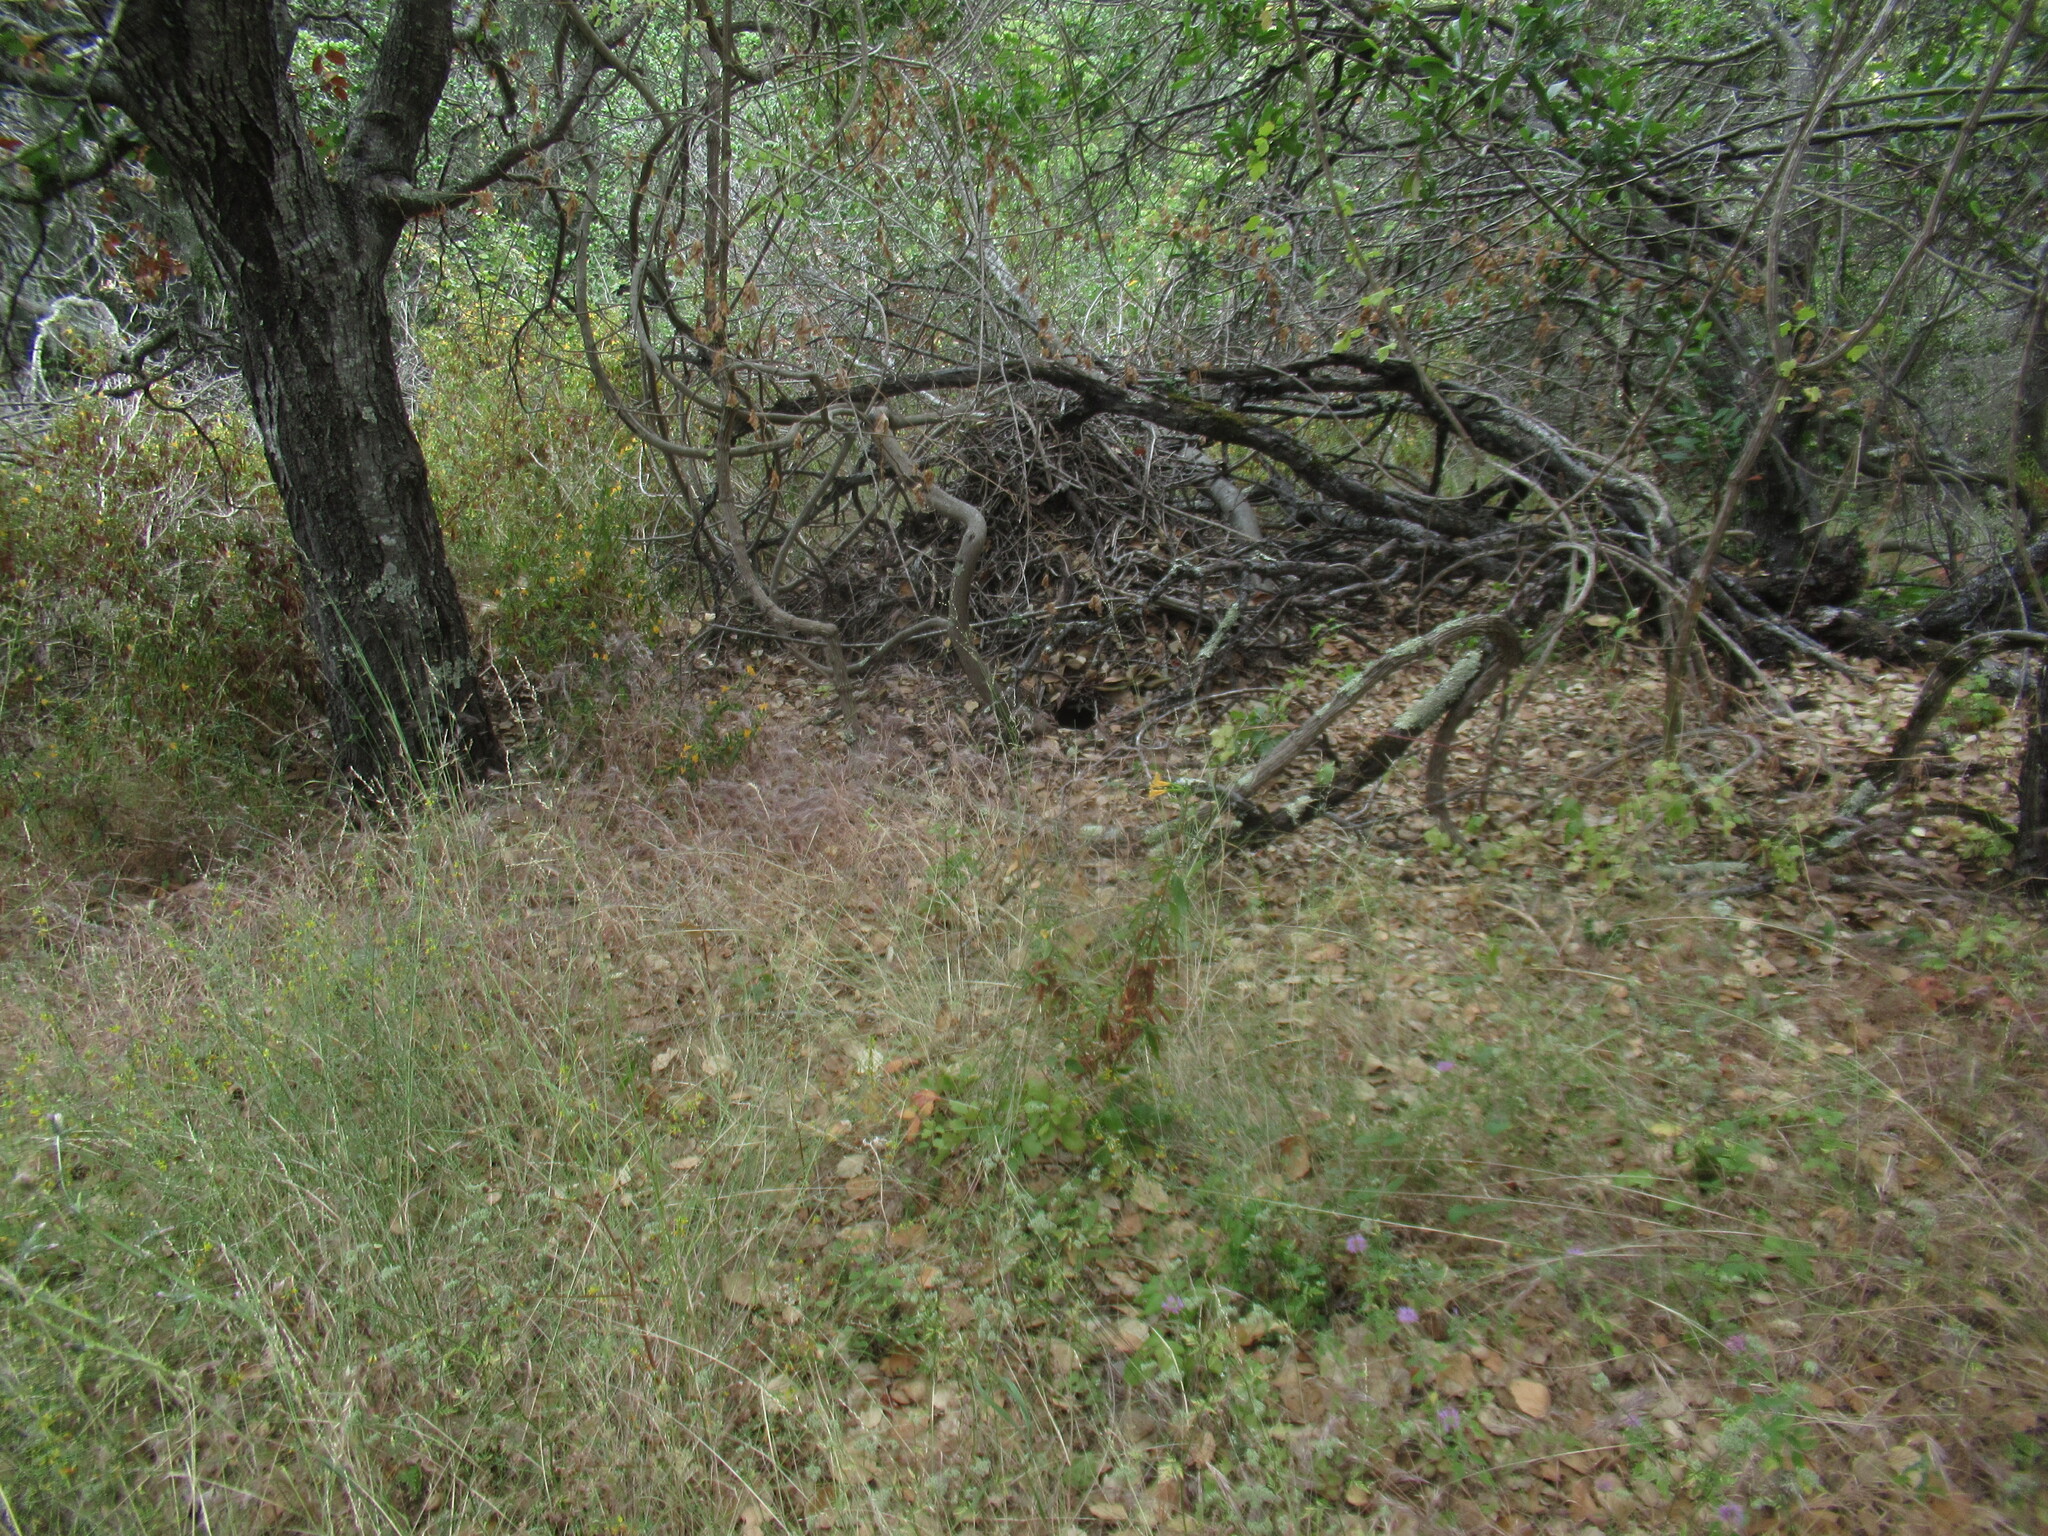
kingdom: Animalia
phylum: Chordata
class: Mammalia
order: Rodentia
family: Cricetidae
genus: Neotoma
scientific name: Neotoma fuscipes
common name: Dusky-footed woodrat
